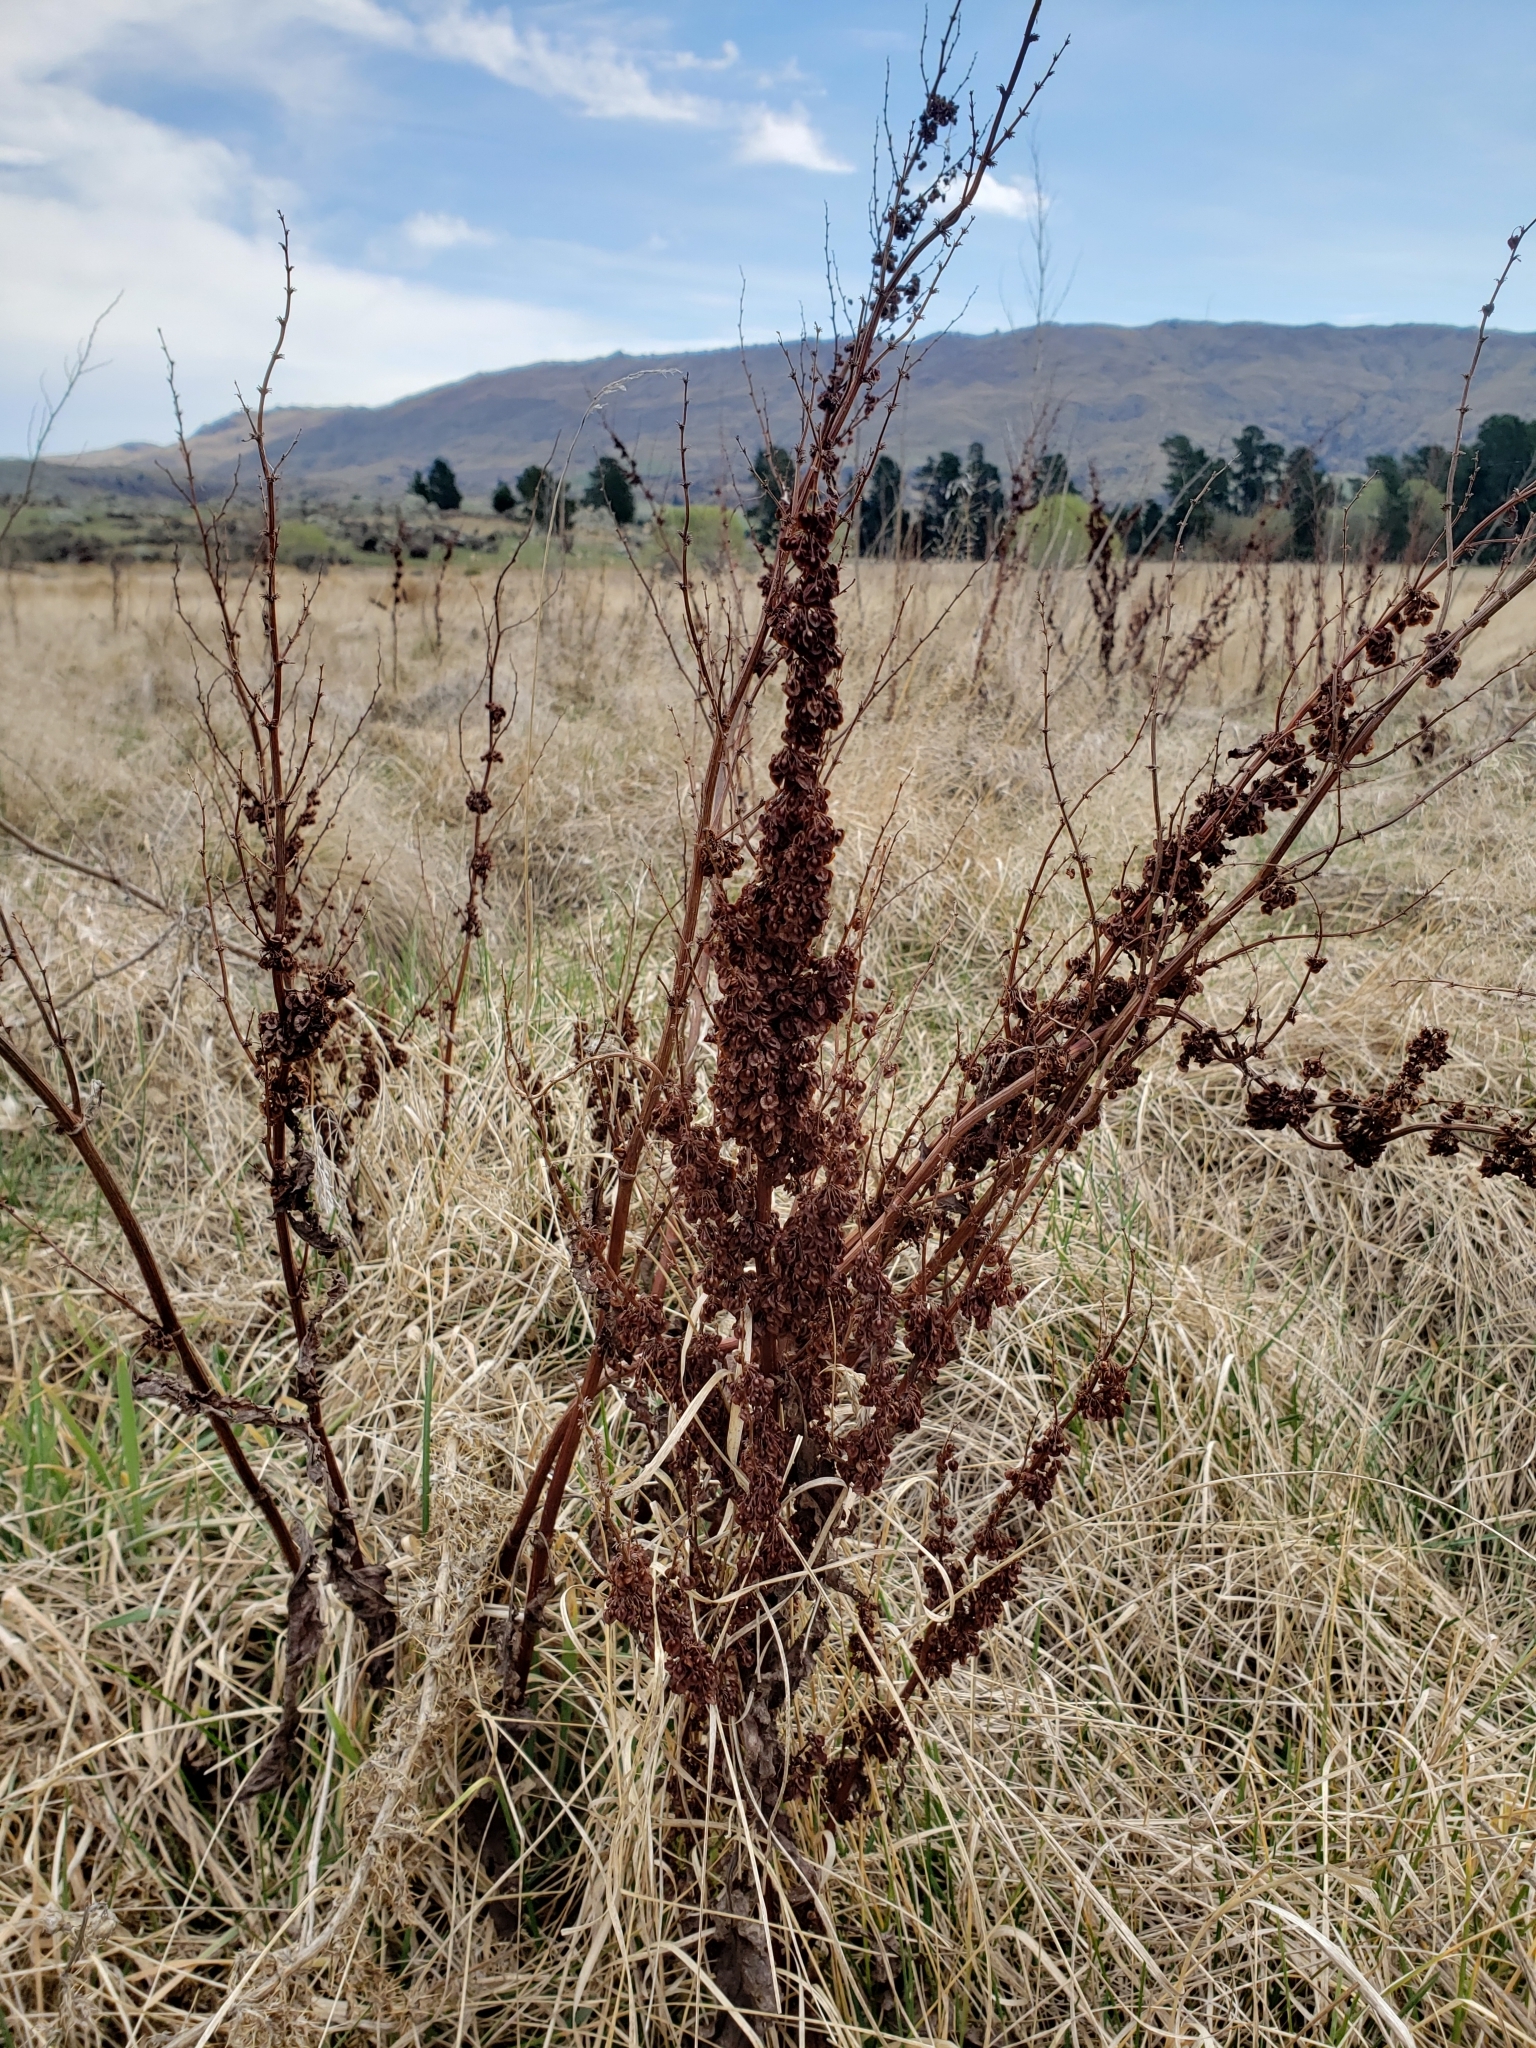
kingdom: Plantae
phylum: Tracheophyta
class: Magnoliopsida
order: Caryophyllales
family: Polygonaceae
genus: Rumex
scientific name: Rumex crispus
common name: Curled dock
